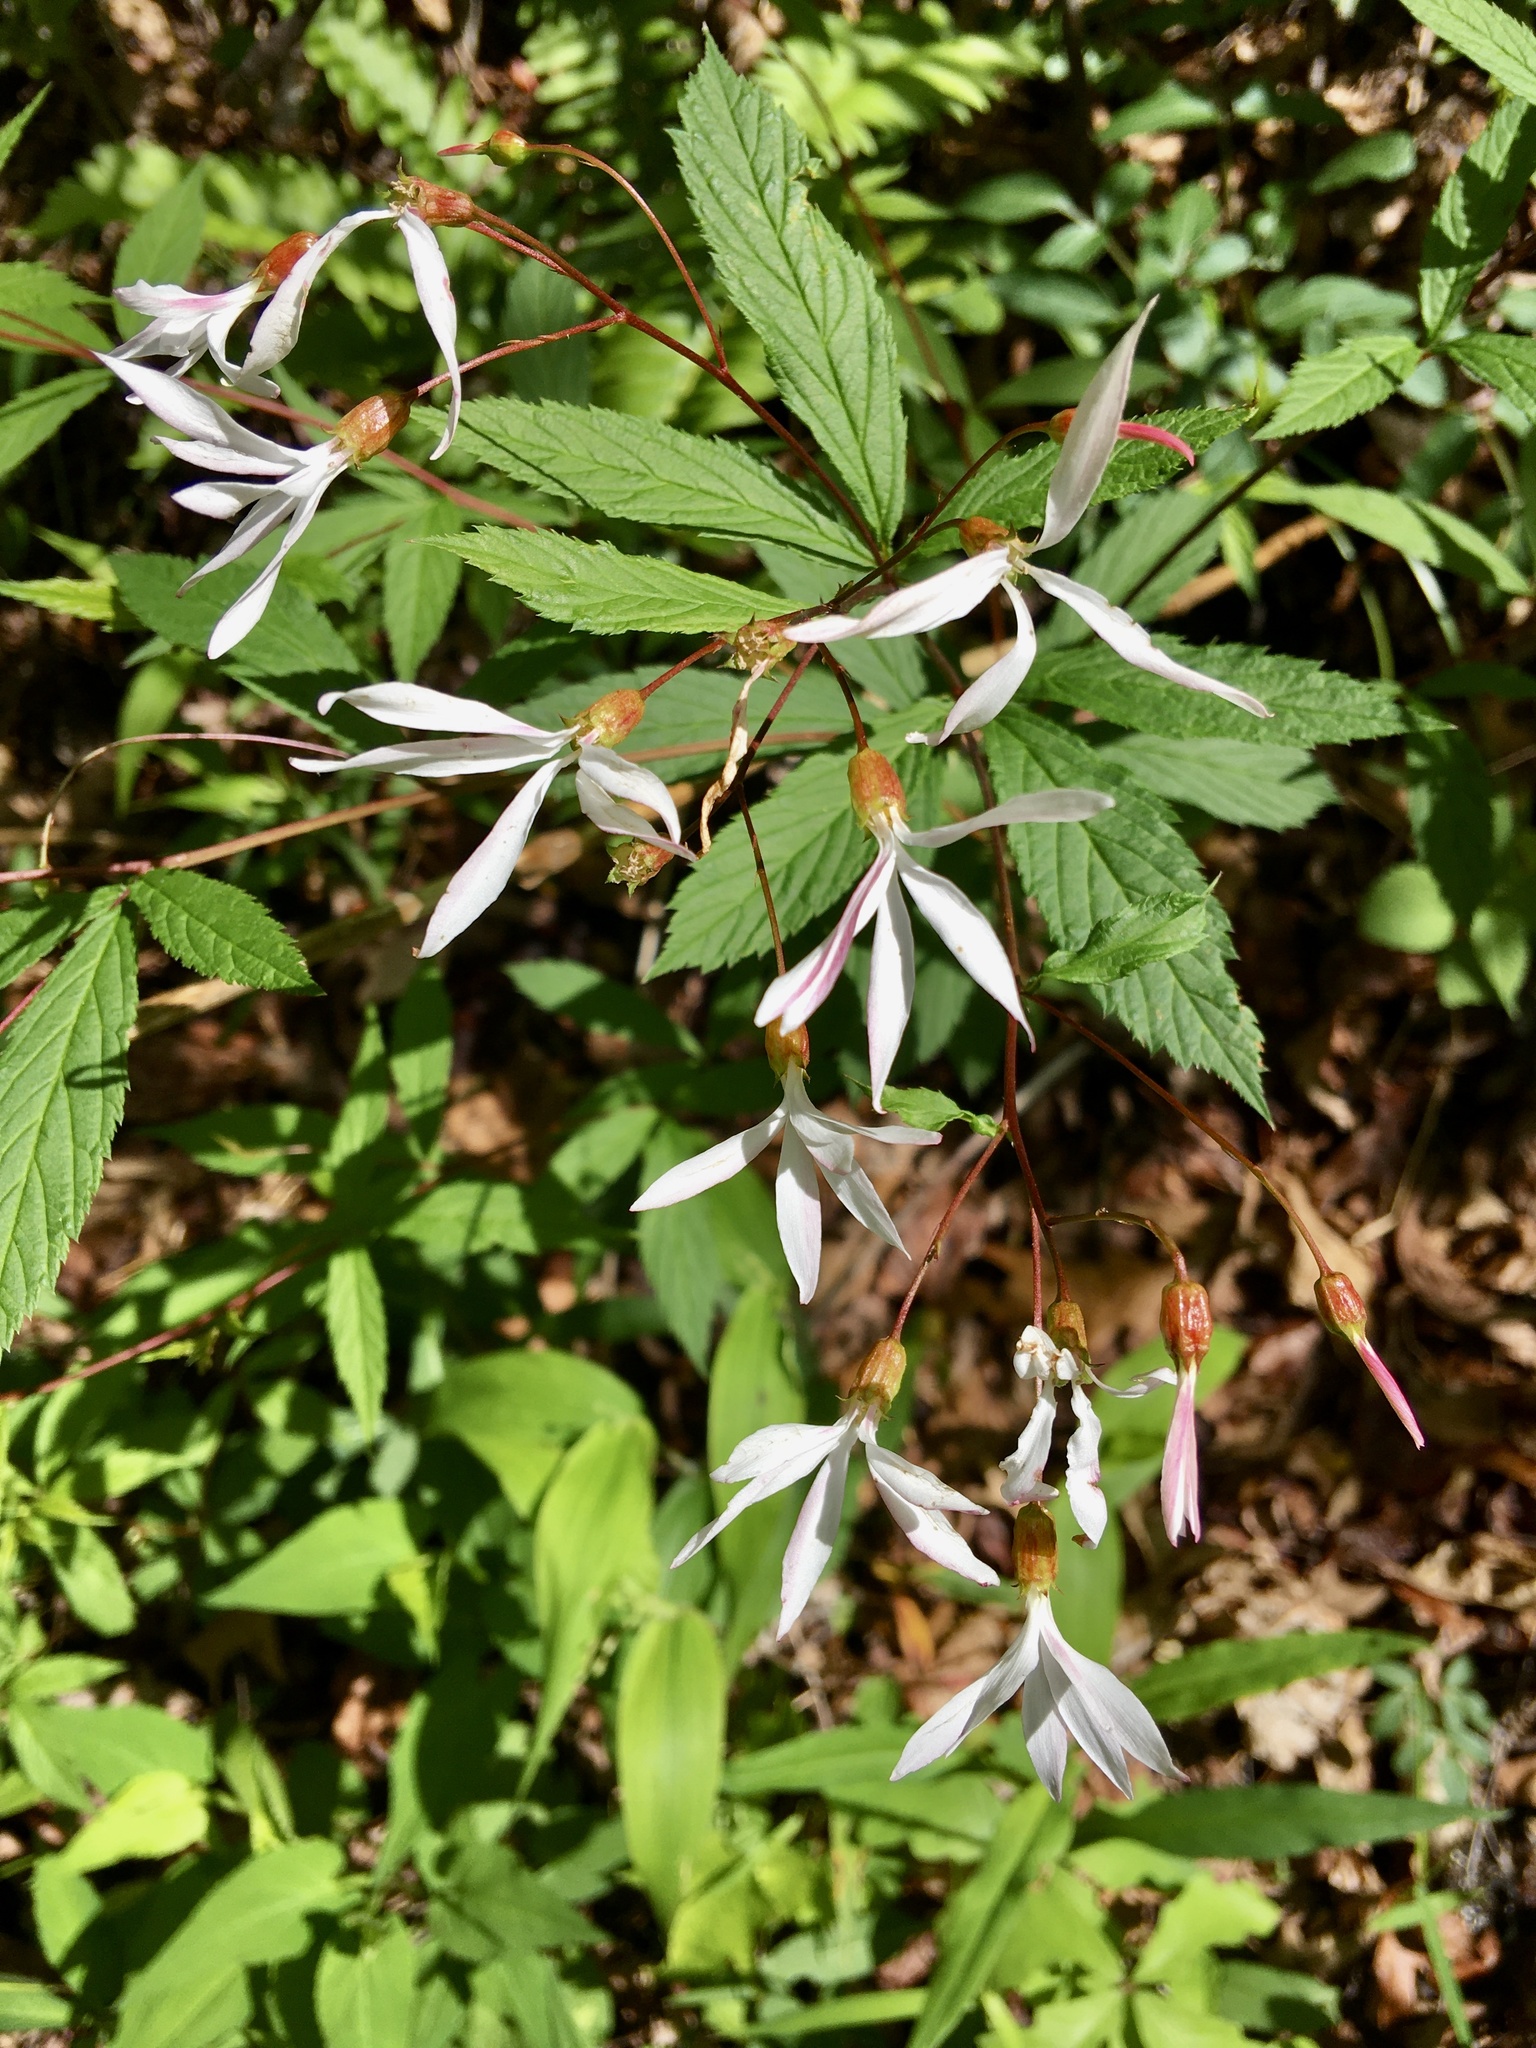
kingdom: Plantae
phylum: Tracheophyta
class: Magnoliopsida
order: Rosales
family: Rosaceae
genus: Gillenia
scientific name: Gillenia trifoliata
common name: Bowman's-root
